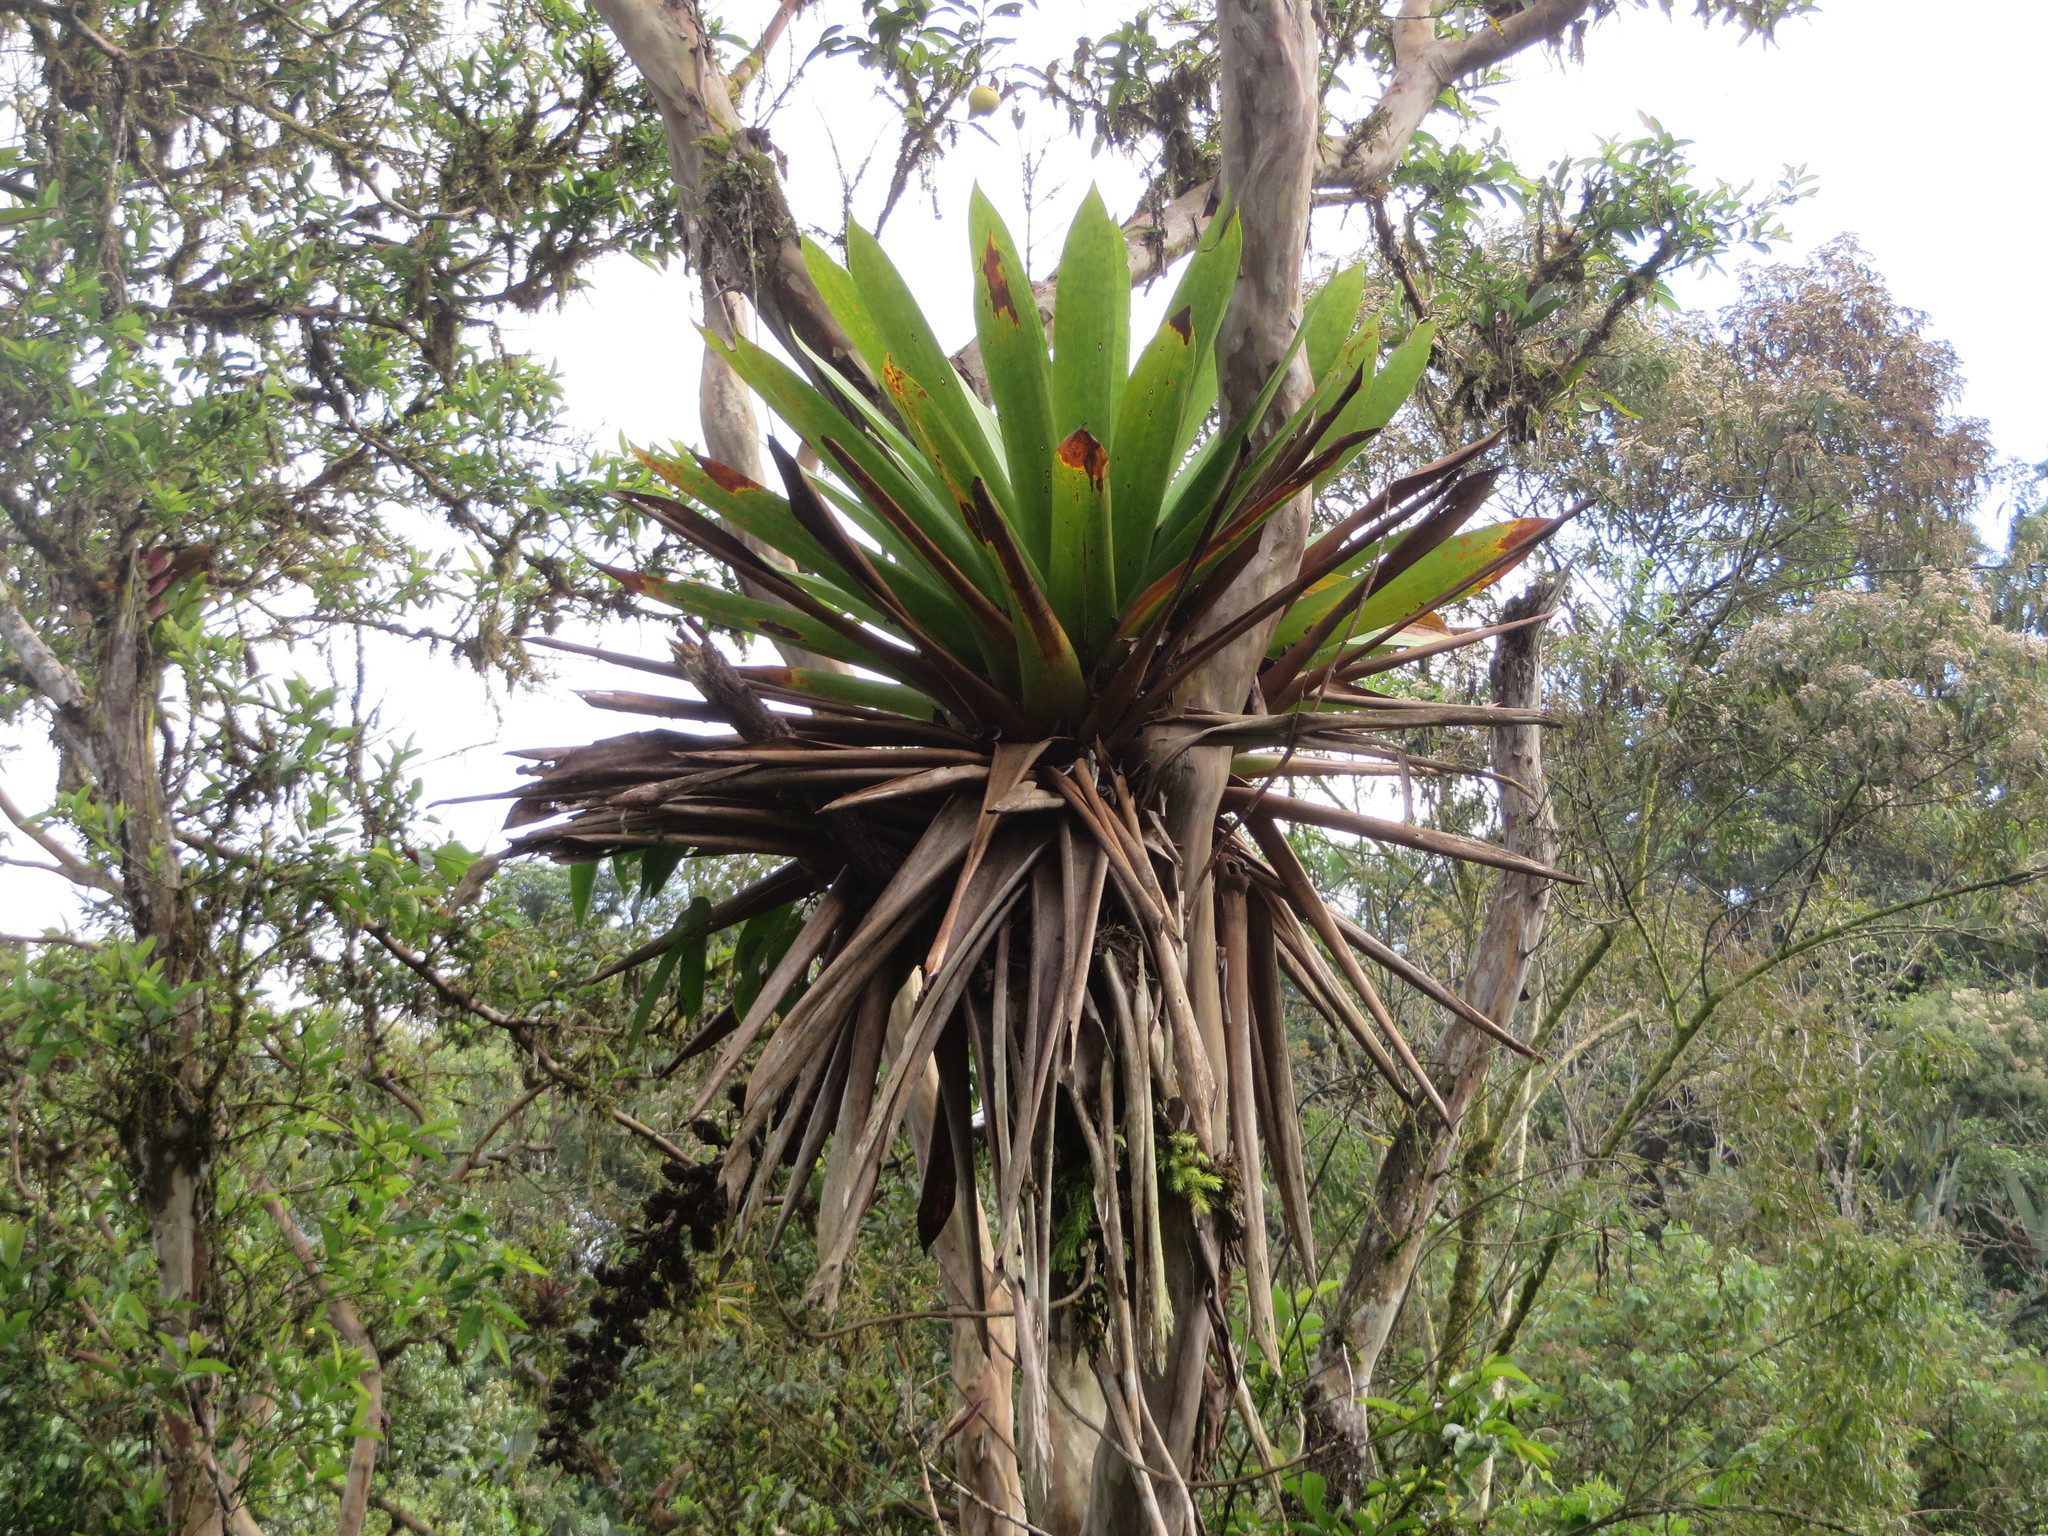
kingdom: Plantae
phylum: Tracheophyta
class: Liliopsida
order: Poales
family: Bromeliaceae
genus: Cipuropsis
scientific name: Cipuropsis capituligera
